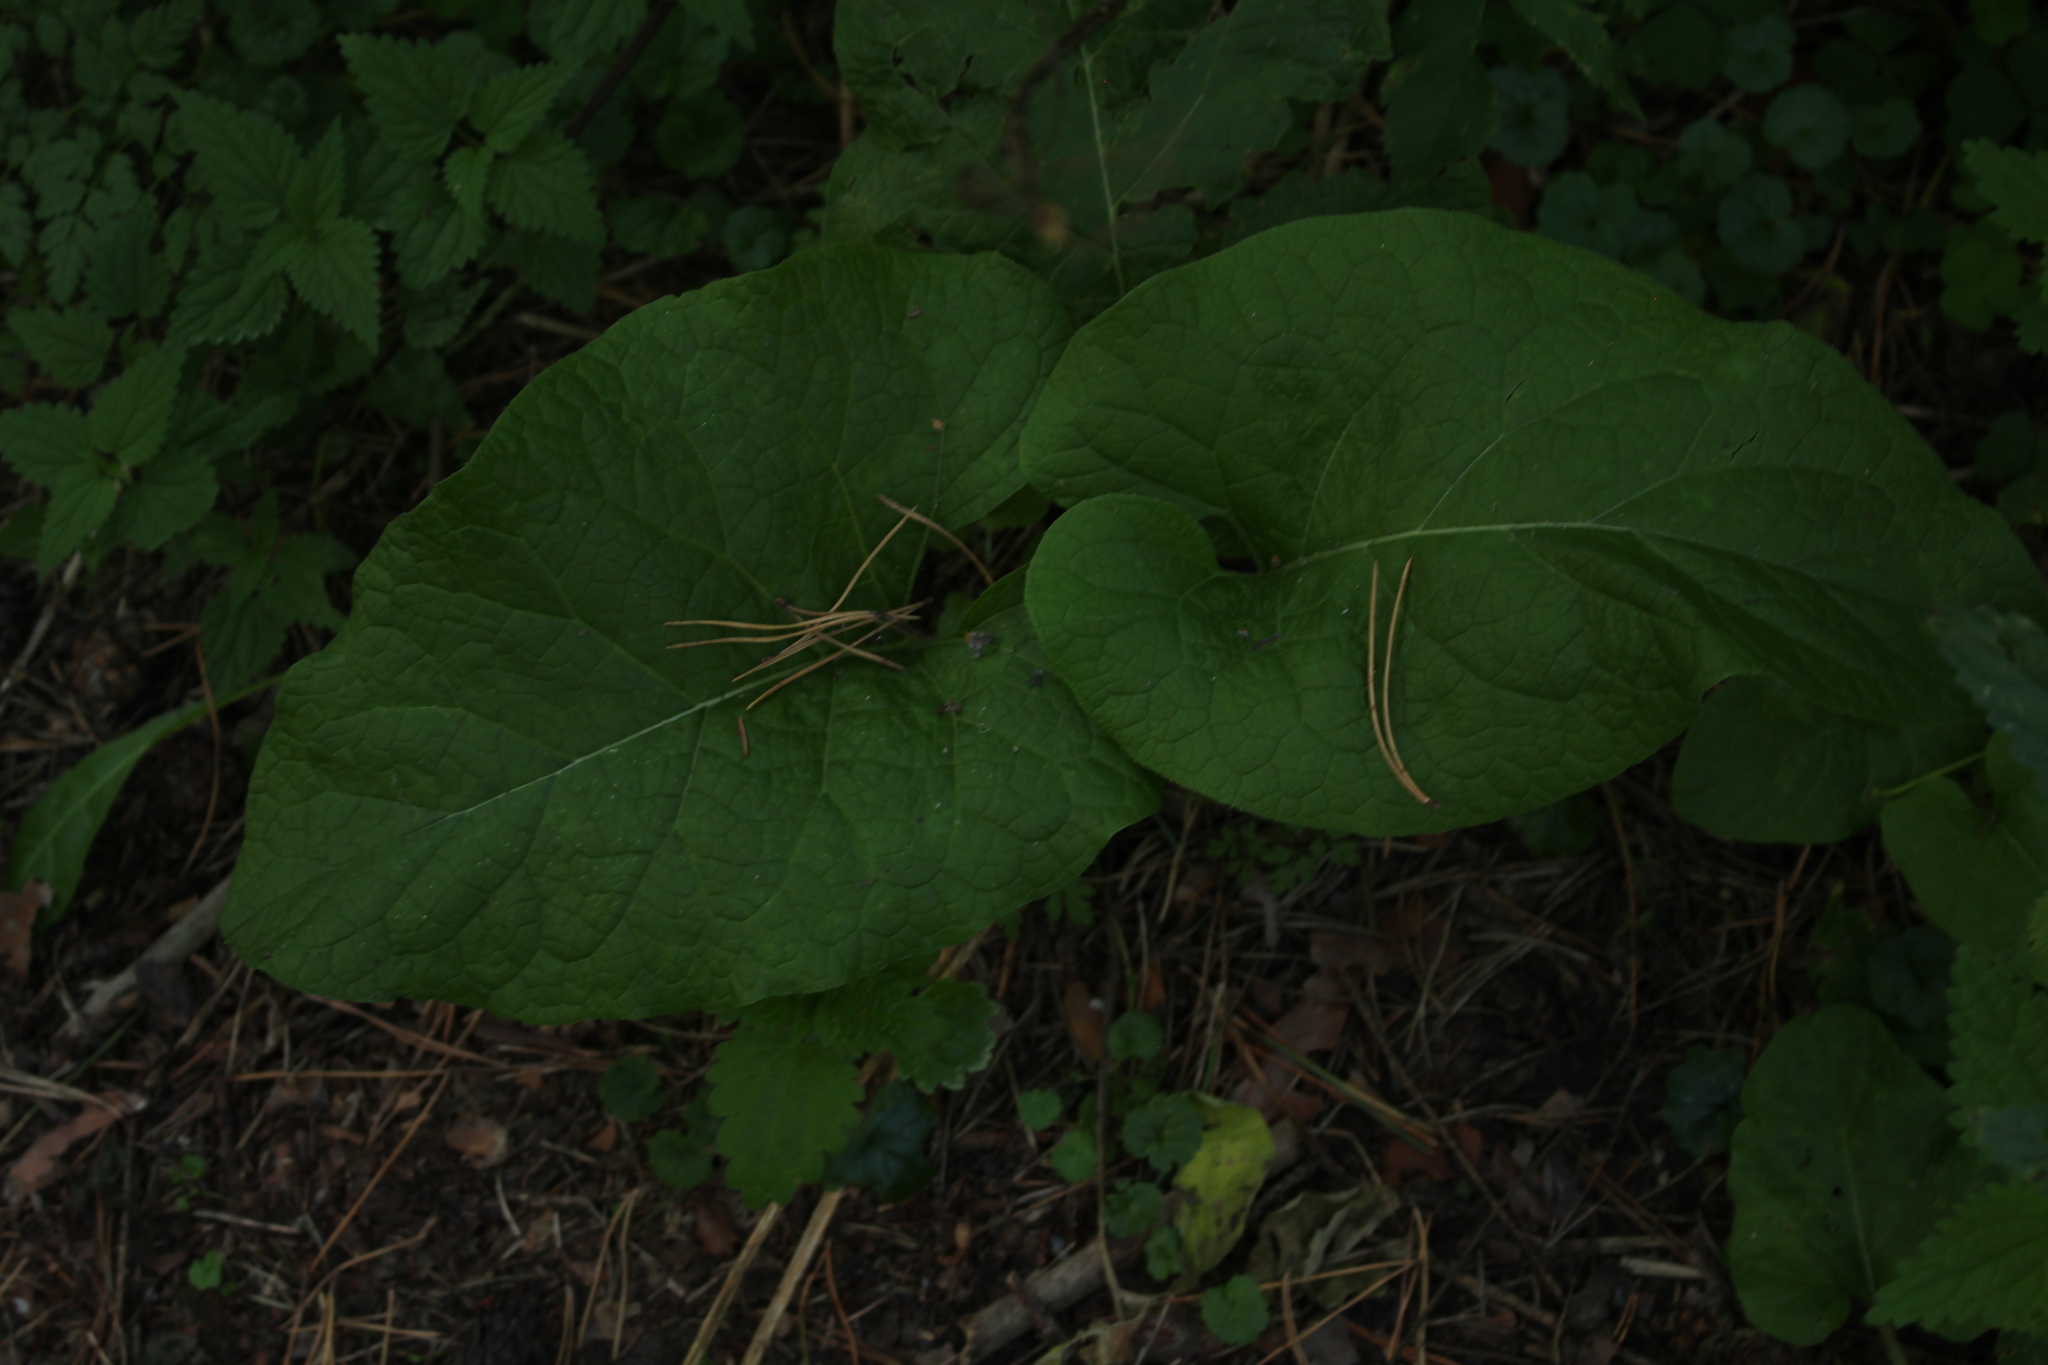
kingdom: Plantae
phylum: Tracheophyta
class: Magnoliopsida
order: Asterales
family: Asteraceae
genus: Arctium
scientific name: Arctium tomentosum
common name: Woolly burdock
